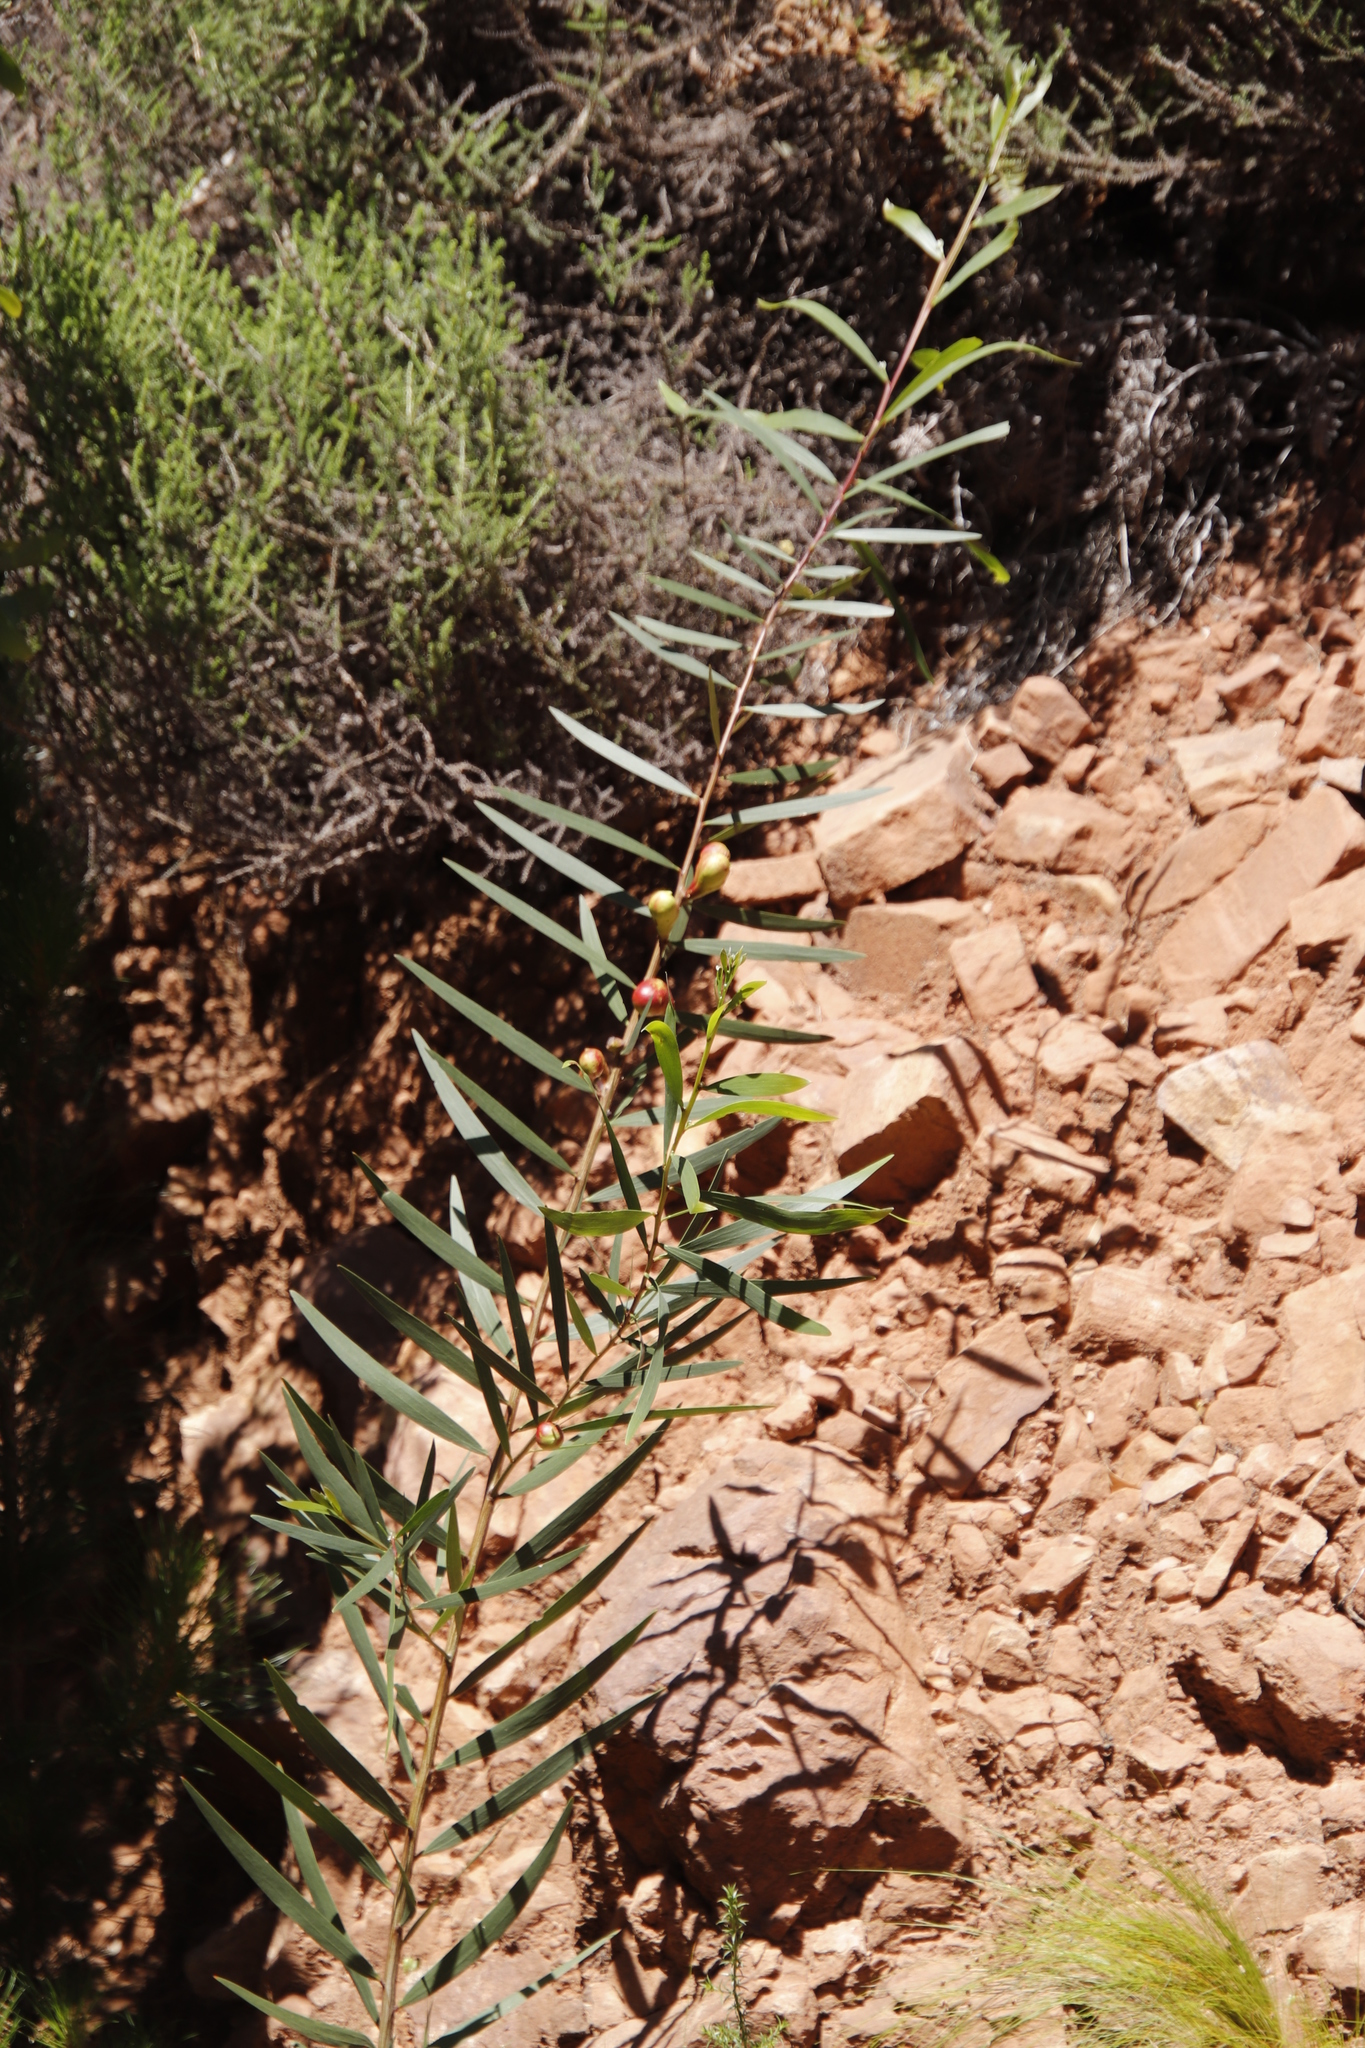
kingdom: Plantae
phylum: Tracheophyta
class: Magnoliopsida
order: Fabales
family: Fabaceae
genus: Acacia
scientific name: Acacia longifolia
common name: Sydney golden wattle
